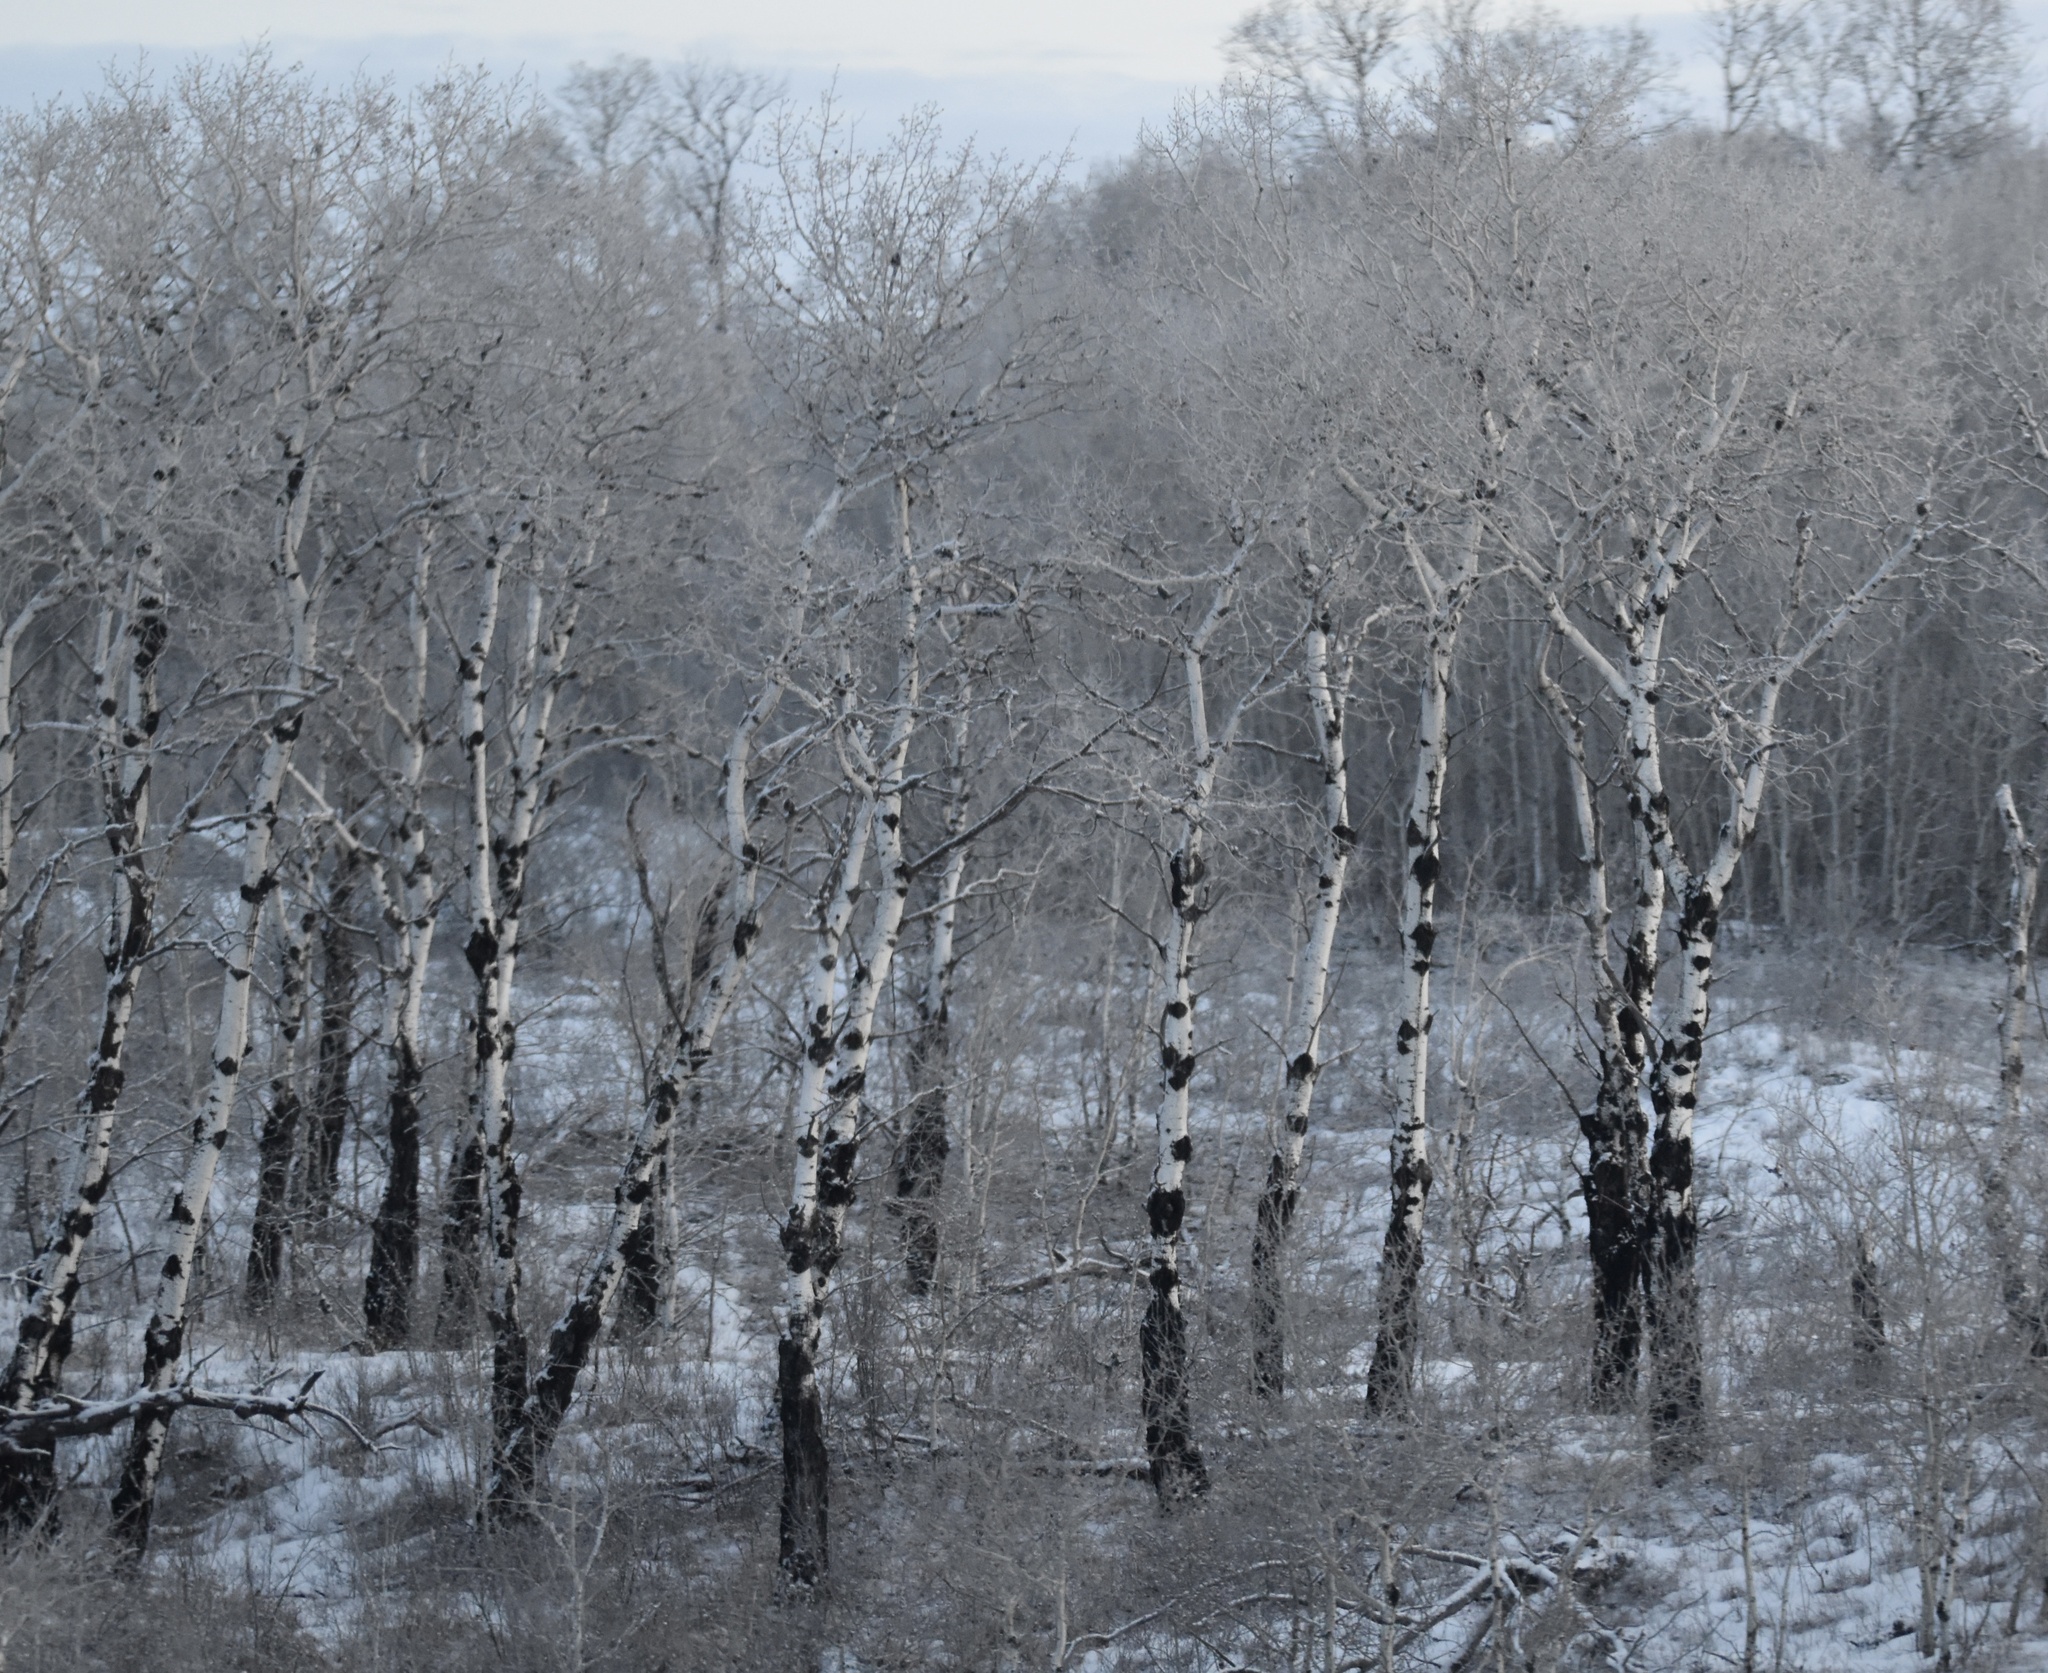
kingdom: Plantae
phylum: Tracheophyta
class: Magnoliopsida
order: Malpighiales
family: Salicaceae
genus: Populus
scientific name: Populus tremuloides
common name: Quaking aspen
